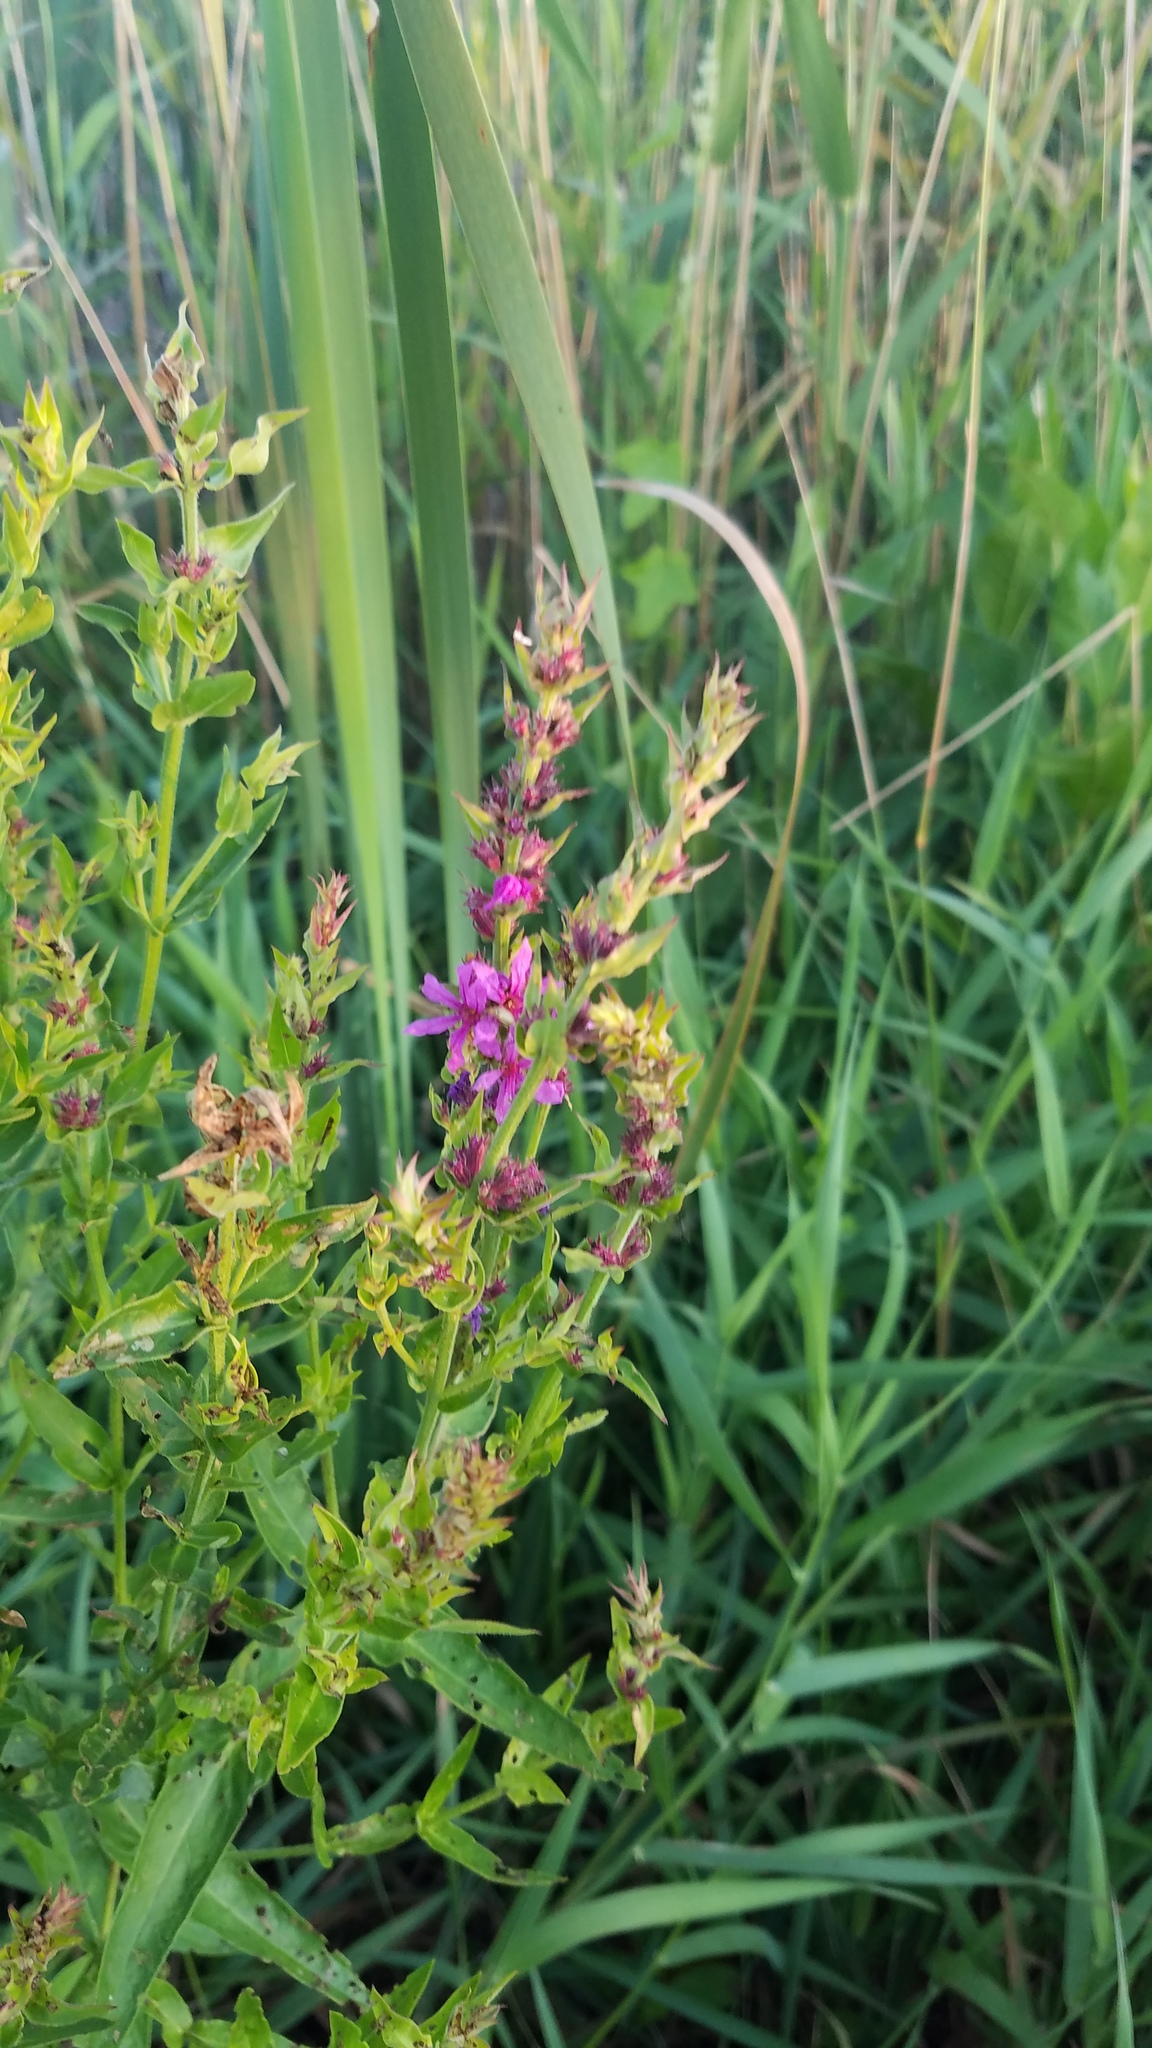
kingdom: Plantae
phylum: Tracheophyta
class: Magnoliopsida
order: Myrtales
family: Lythraceae
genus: Lythrum
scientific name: Lythrum salicaria
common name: Purple loosestrife
